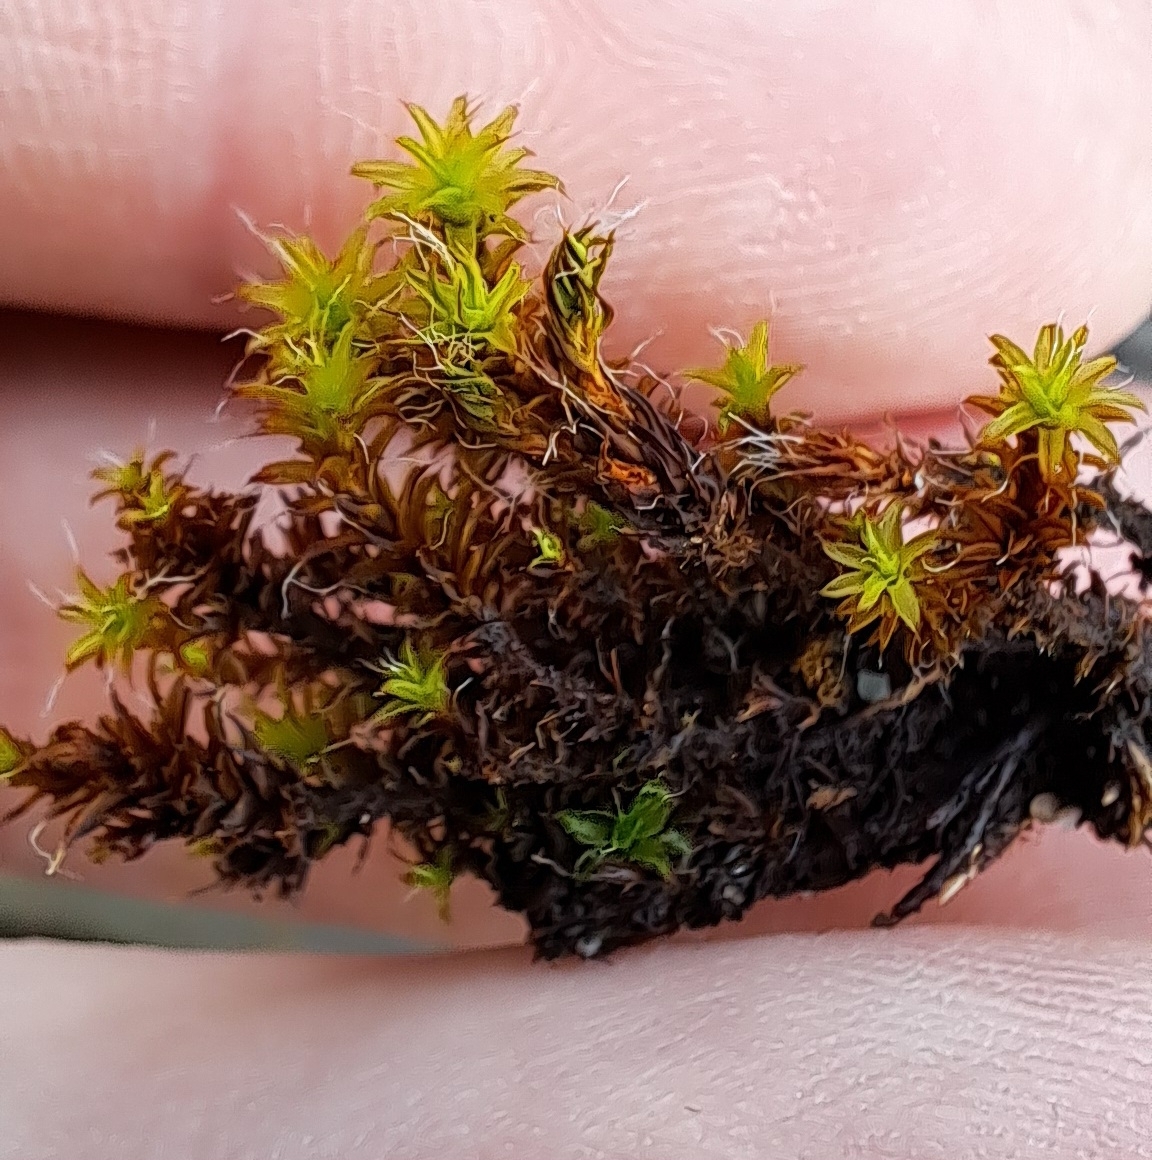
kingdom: Plantae
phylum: Bryophyta
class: Bryopsida
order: Pottiales
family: Pottiaceae
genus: Syntrichia
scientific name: Syntrichia ruralis
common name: Sidewalk screw moss
